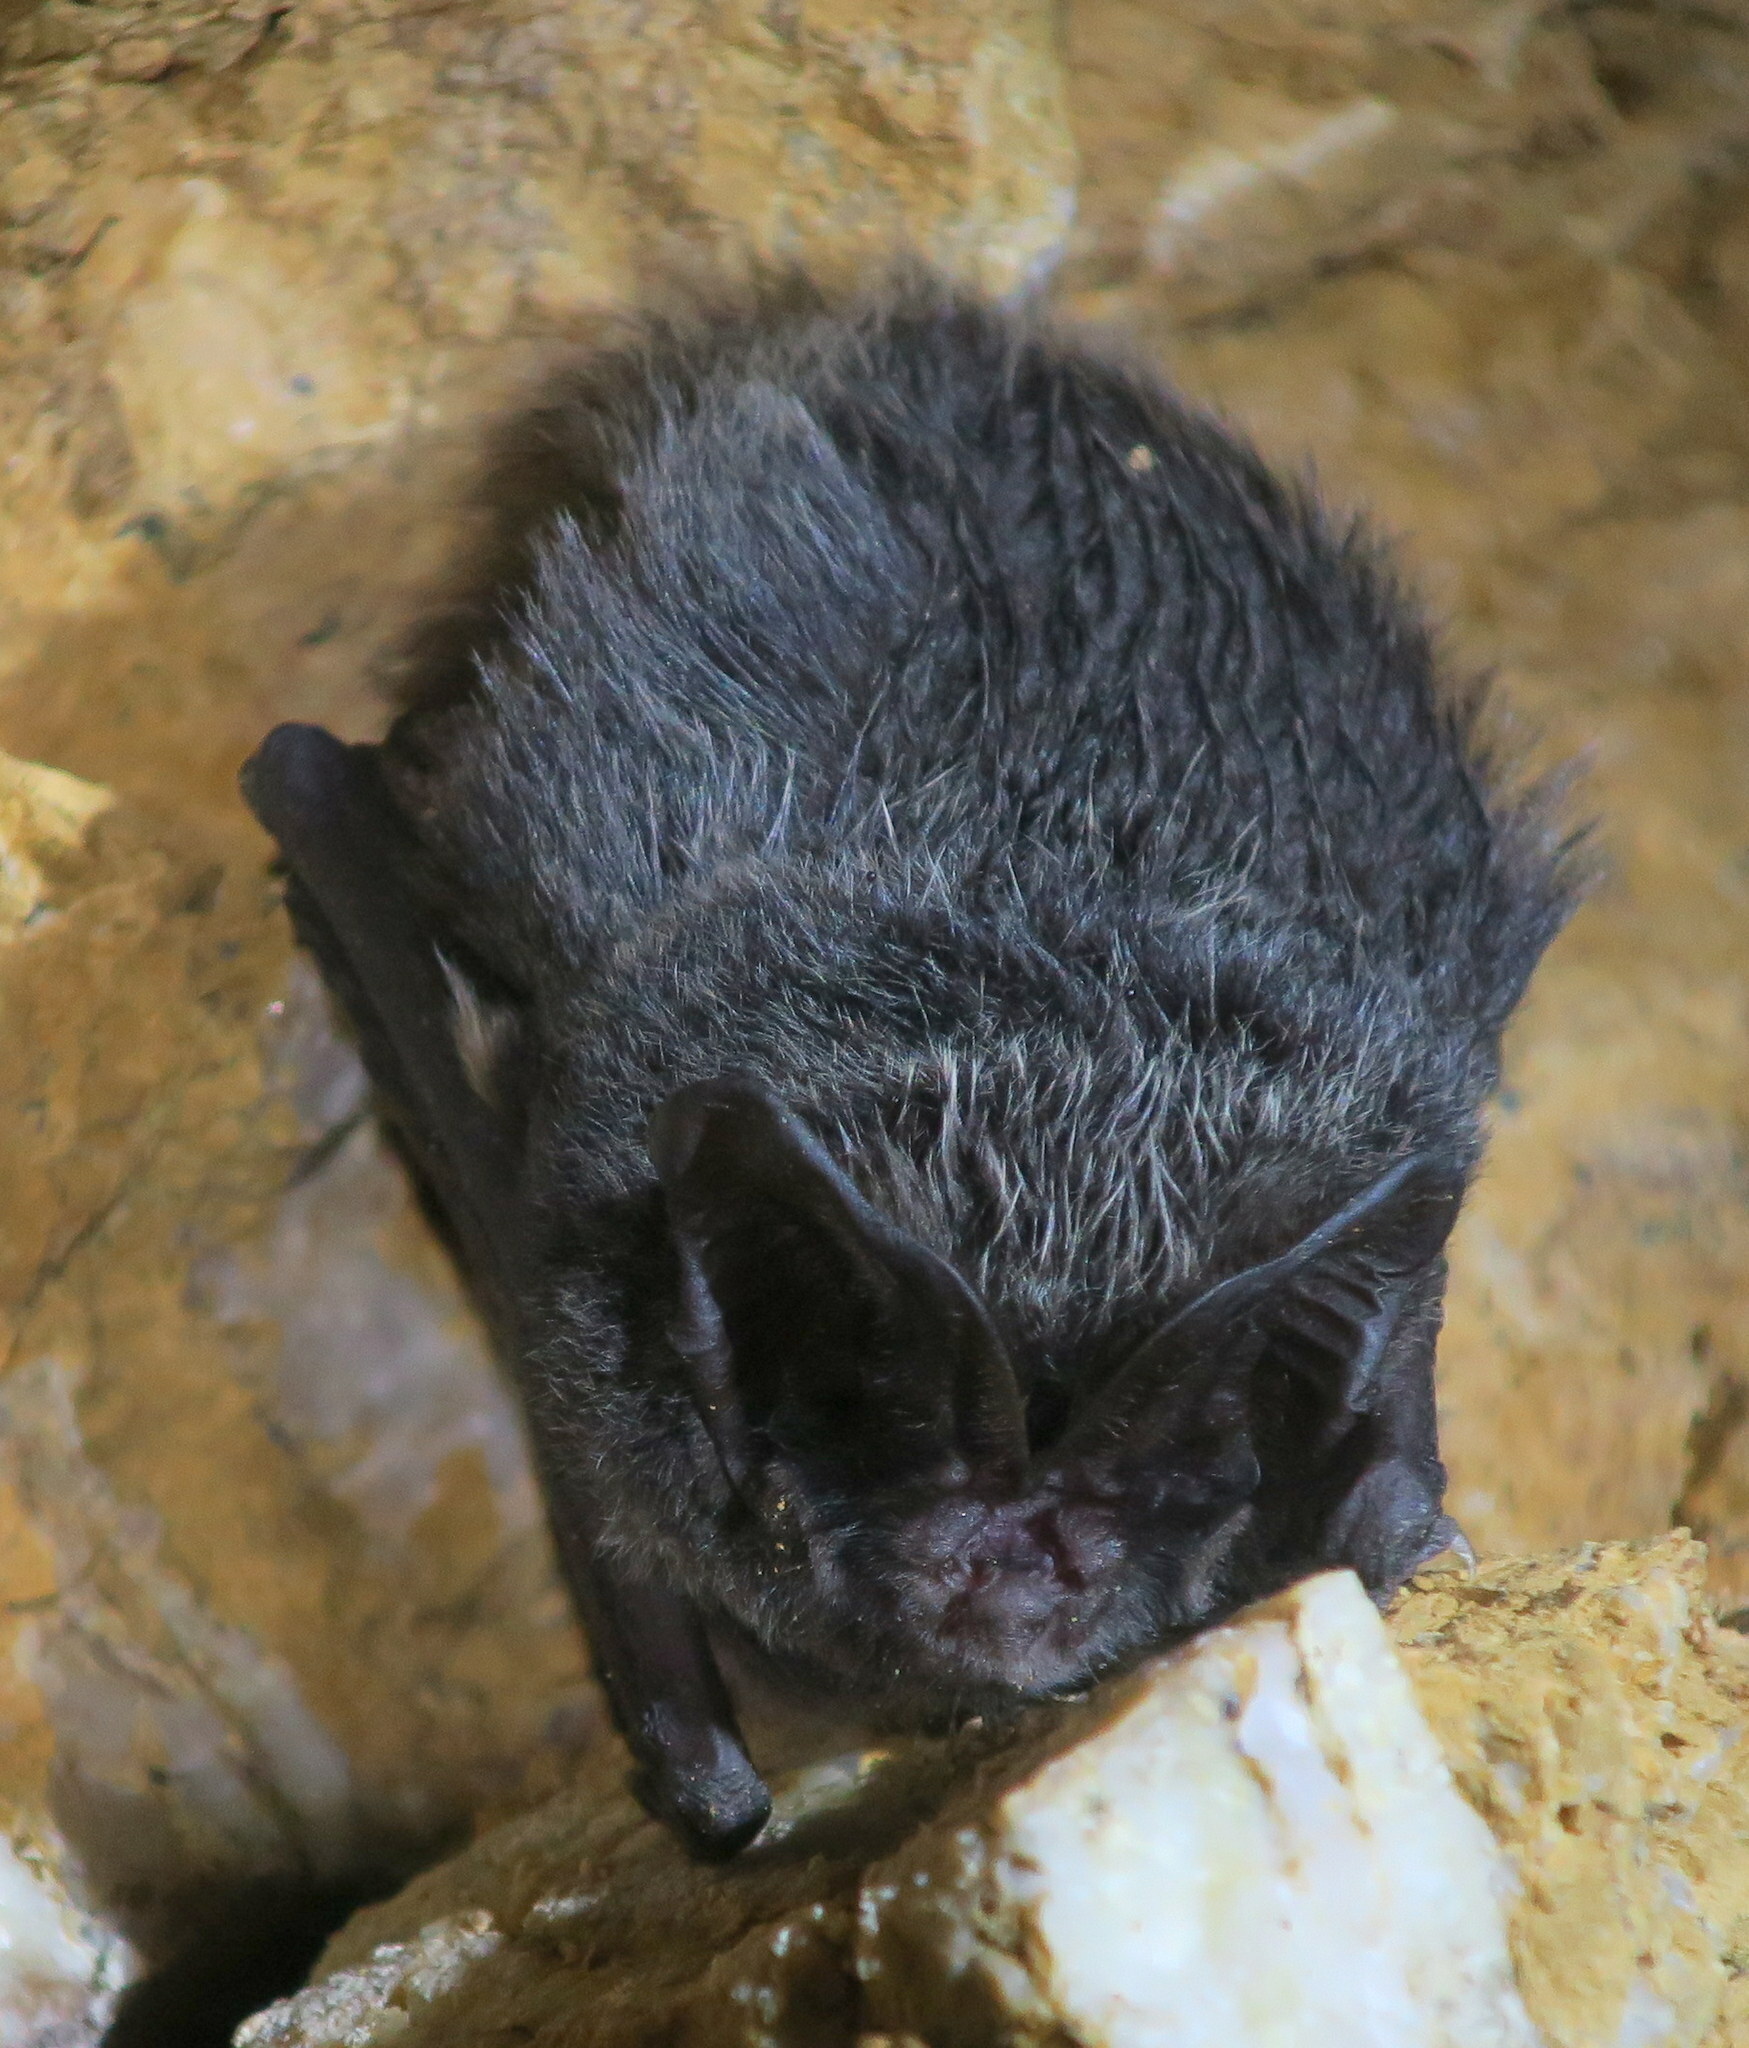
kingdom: Animalia
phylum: Chordata
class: Mammalia
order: Chiroptera
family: Vespertilionidae
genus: Barbastella
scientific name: Barbastella barbastellus
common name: Western barbastelle
